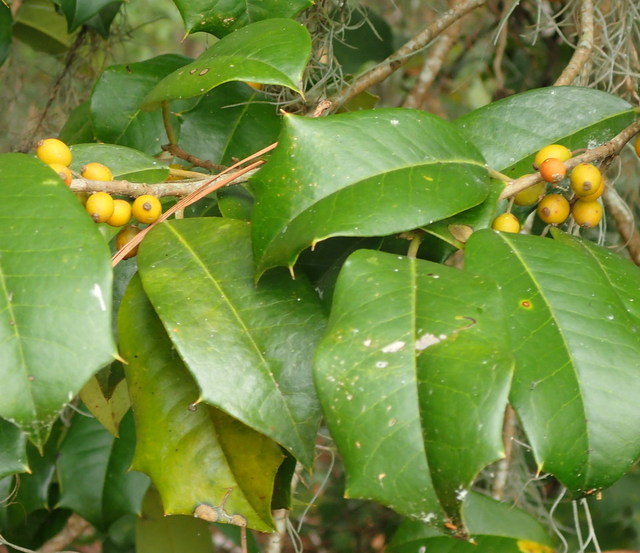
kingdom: Plantae
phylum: Tracheophyta
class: Magnoliopsida
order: Aquifoliales
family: Aquifoliaceae
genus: Ilex
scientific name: Ilex opaca
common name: American holly
